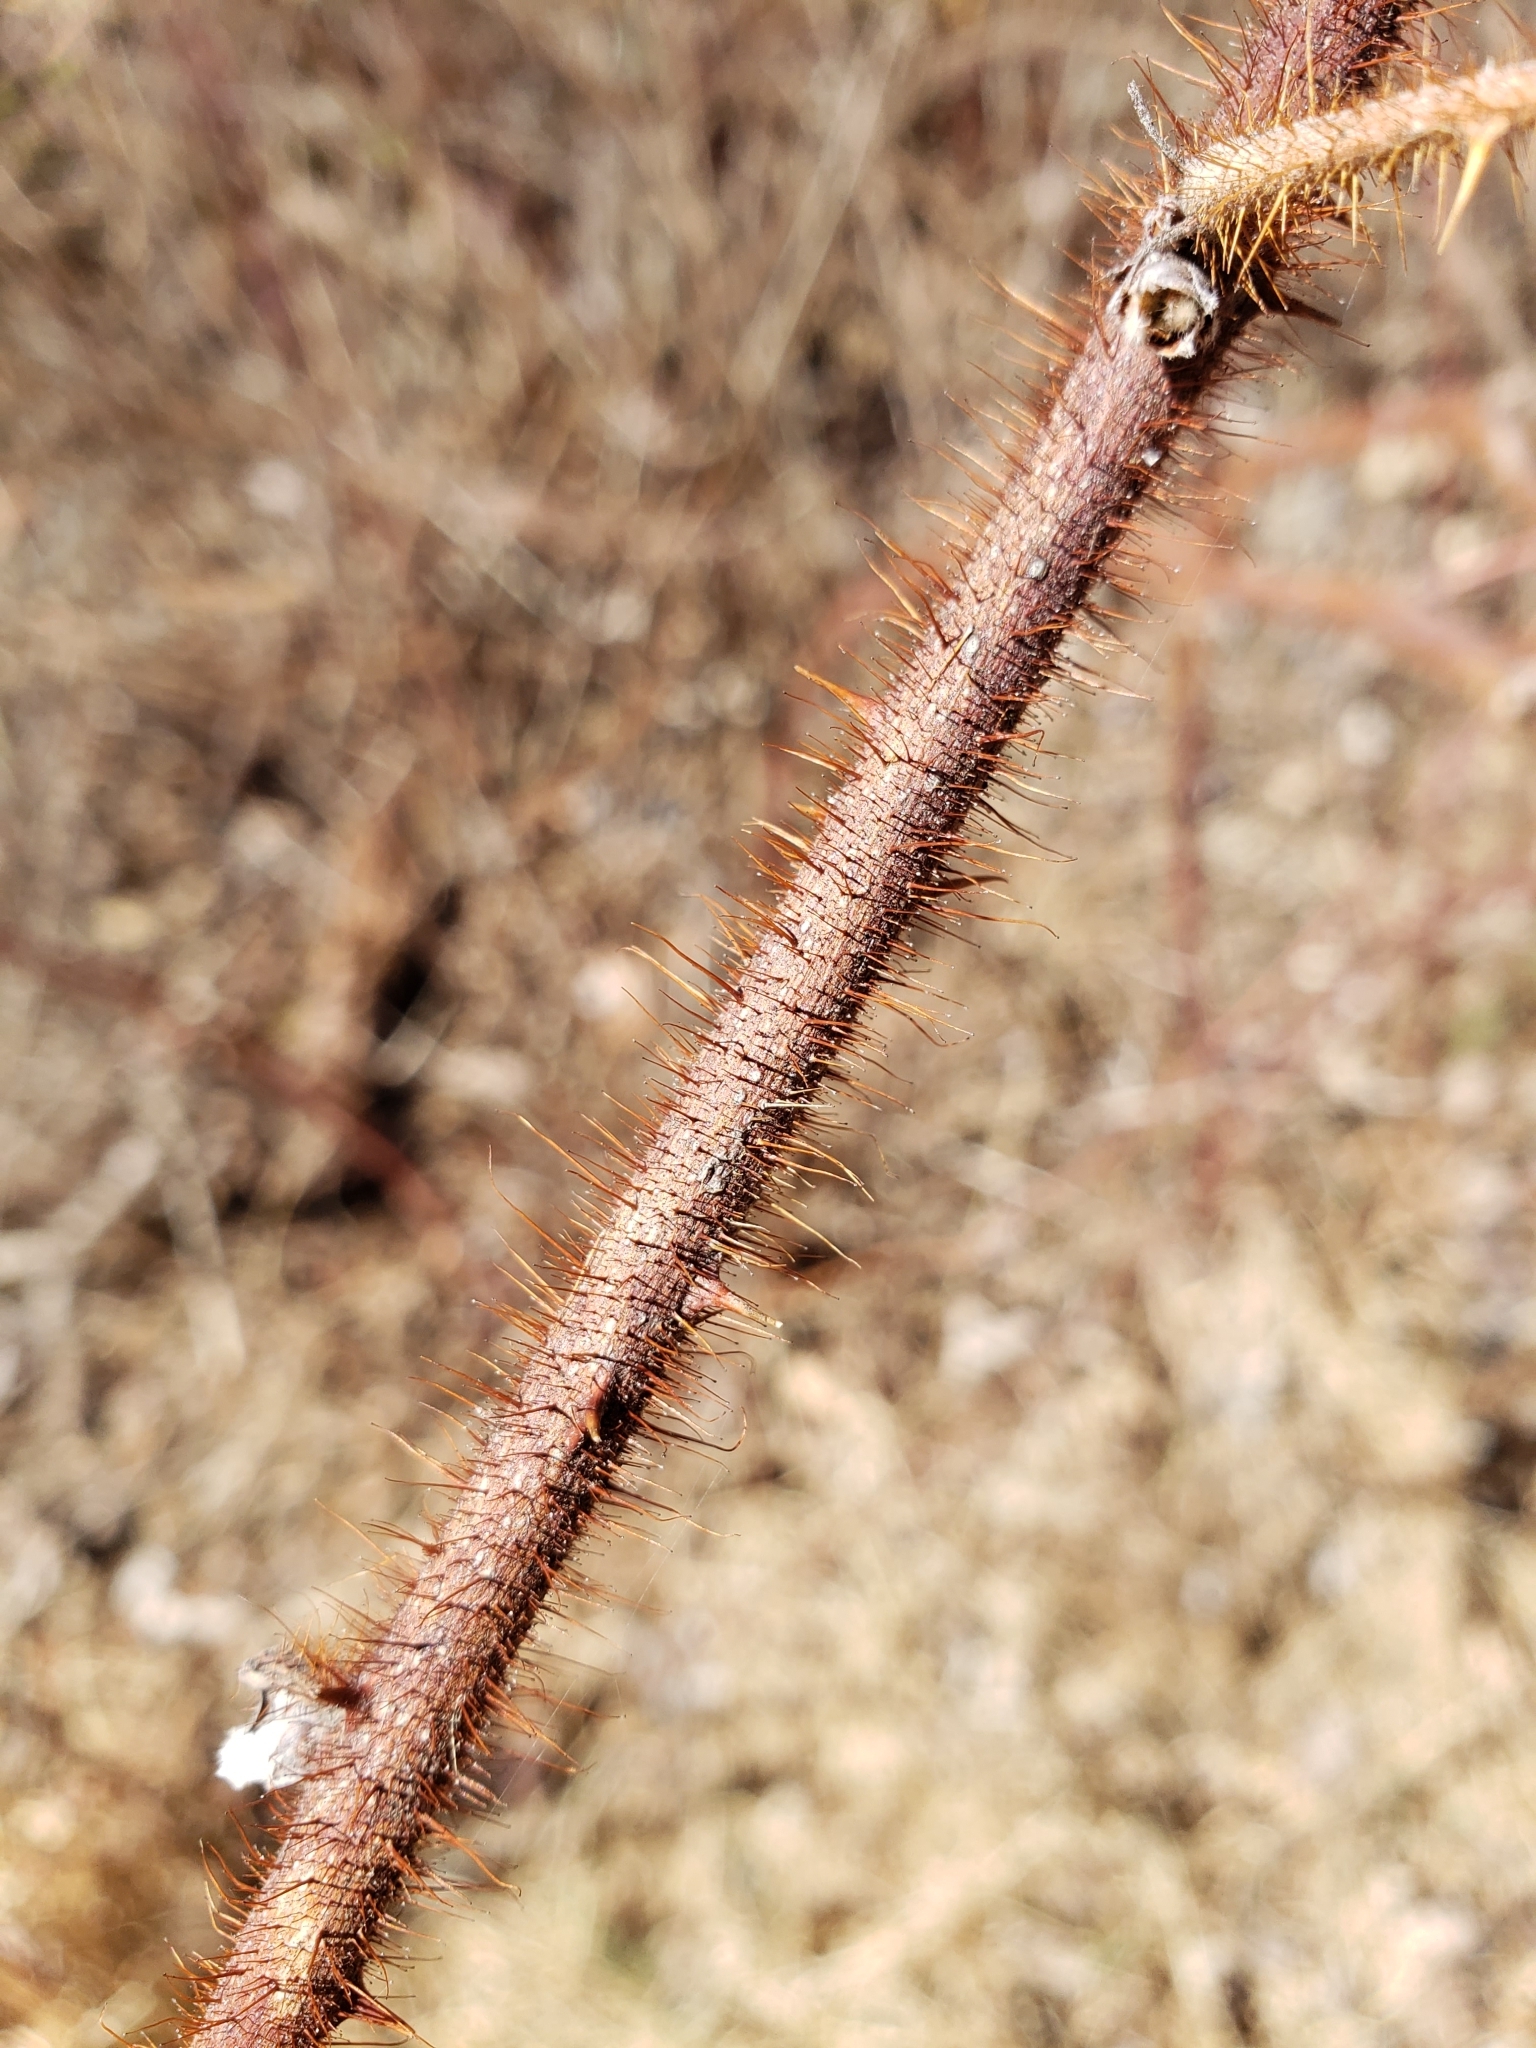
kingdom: Plantae
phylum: Tracheophyta
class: Magnoliopsida
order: Rosales
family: Rosaceae
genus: Rubus
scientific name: Rubus phoenicolasius
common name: Japanese wineberry
